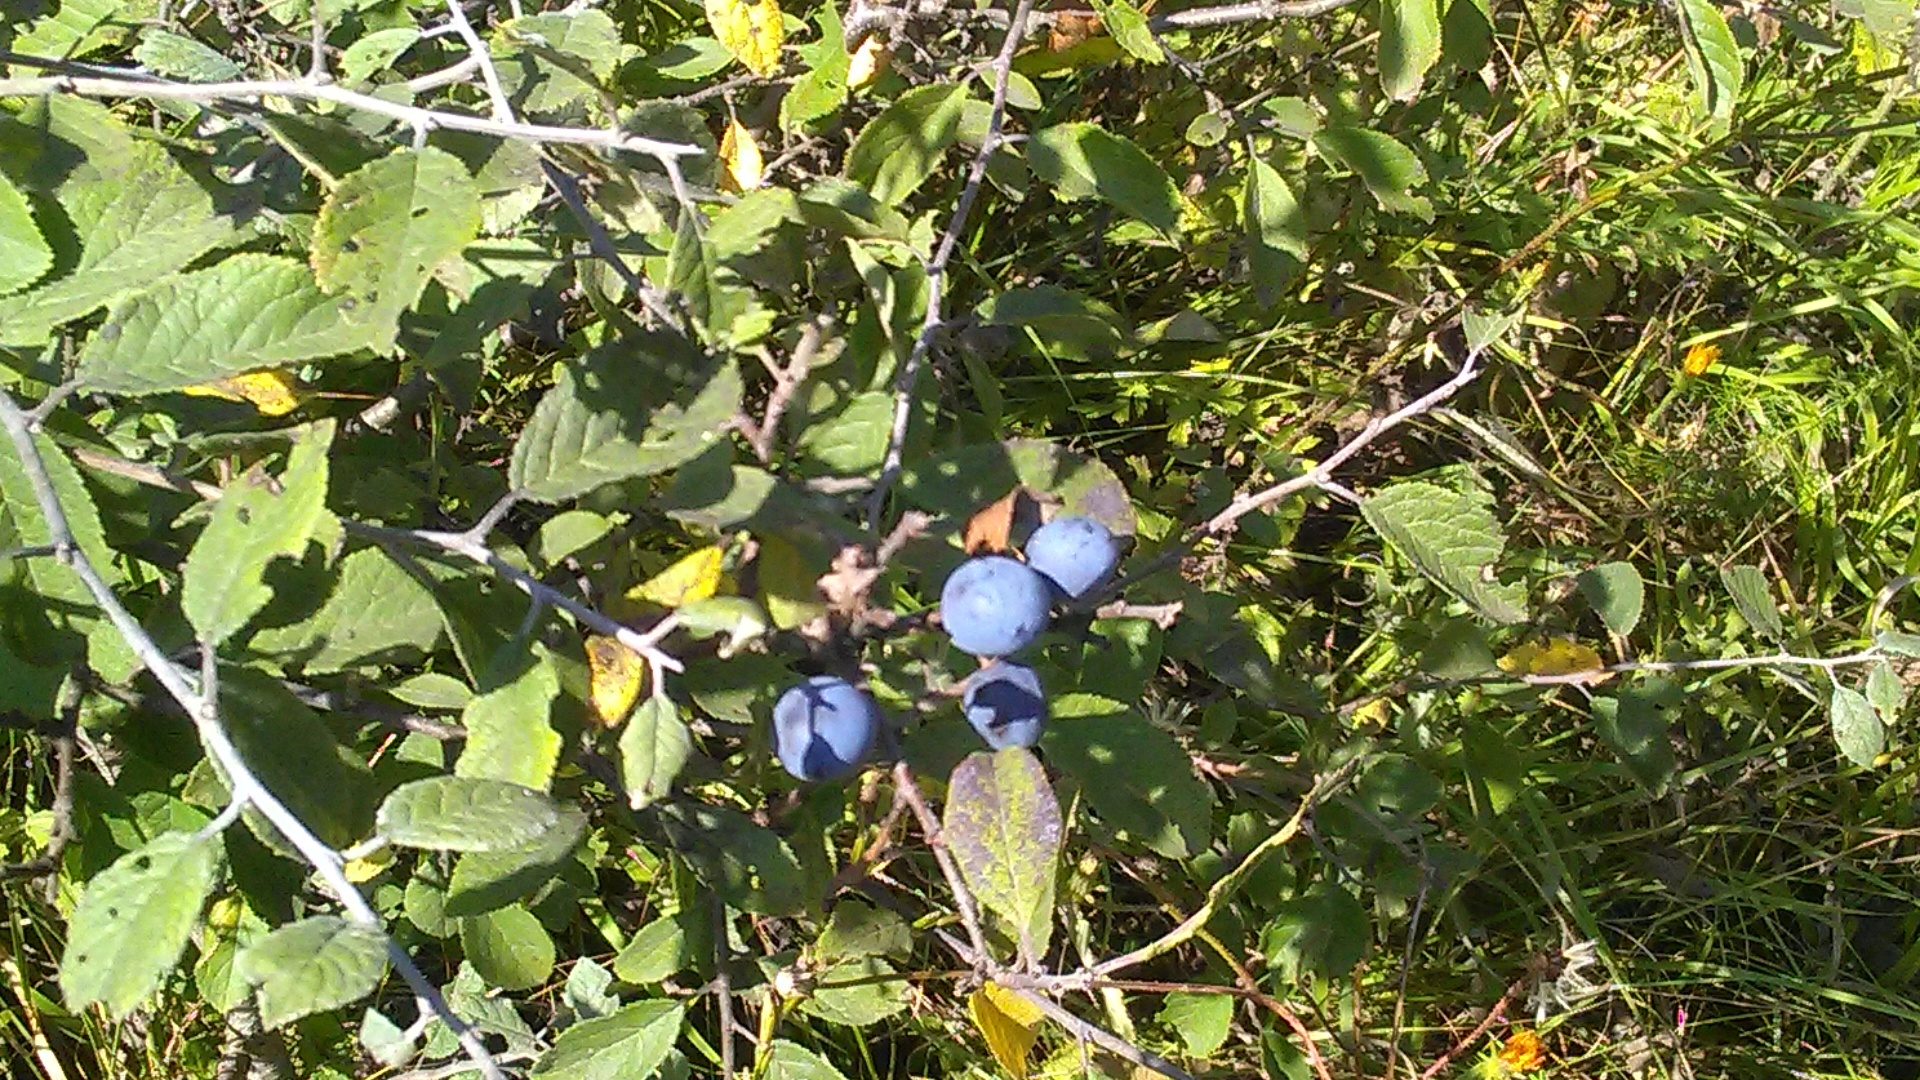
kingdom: Plantae
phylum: Tracheophyta
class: Magnoliopsida
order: Rosales
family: Rosaceae
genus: Prunus
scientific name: Prunus spinosa
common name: Blackthorn
